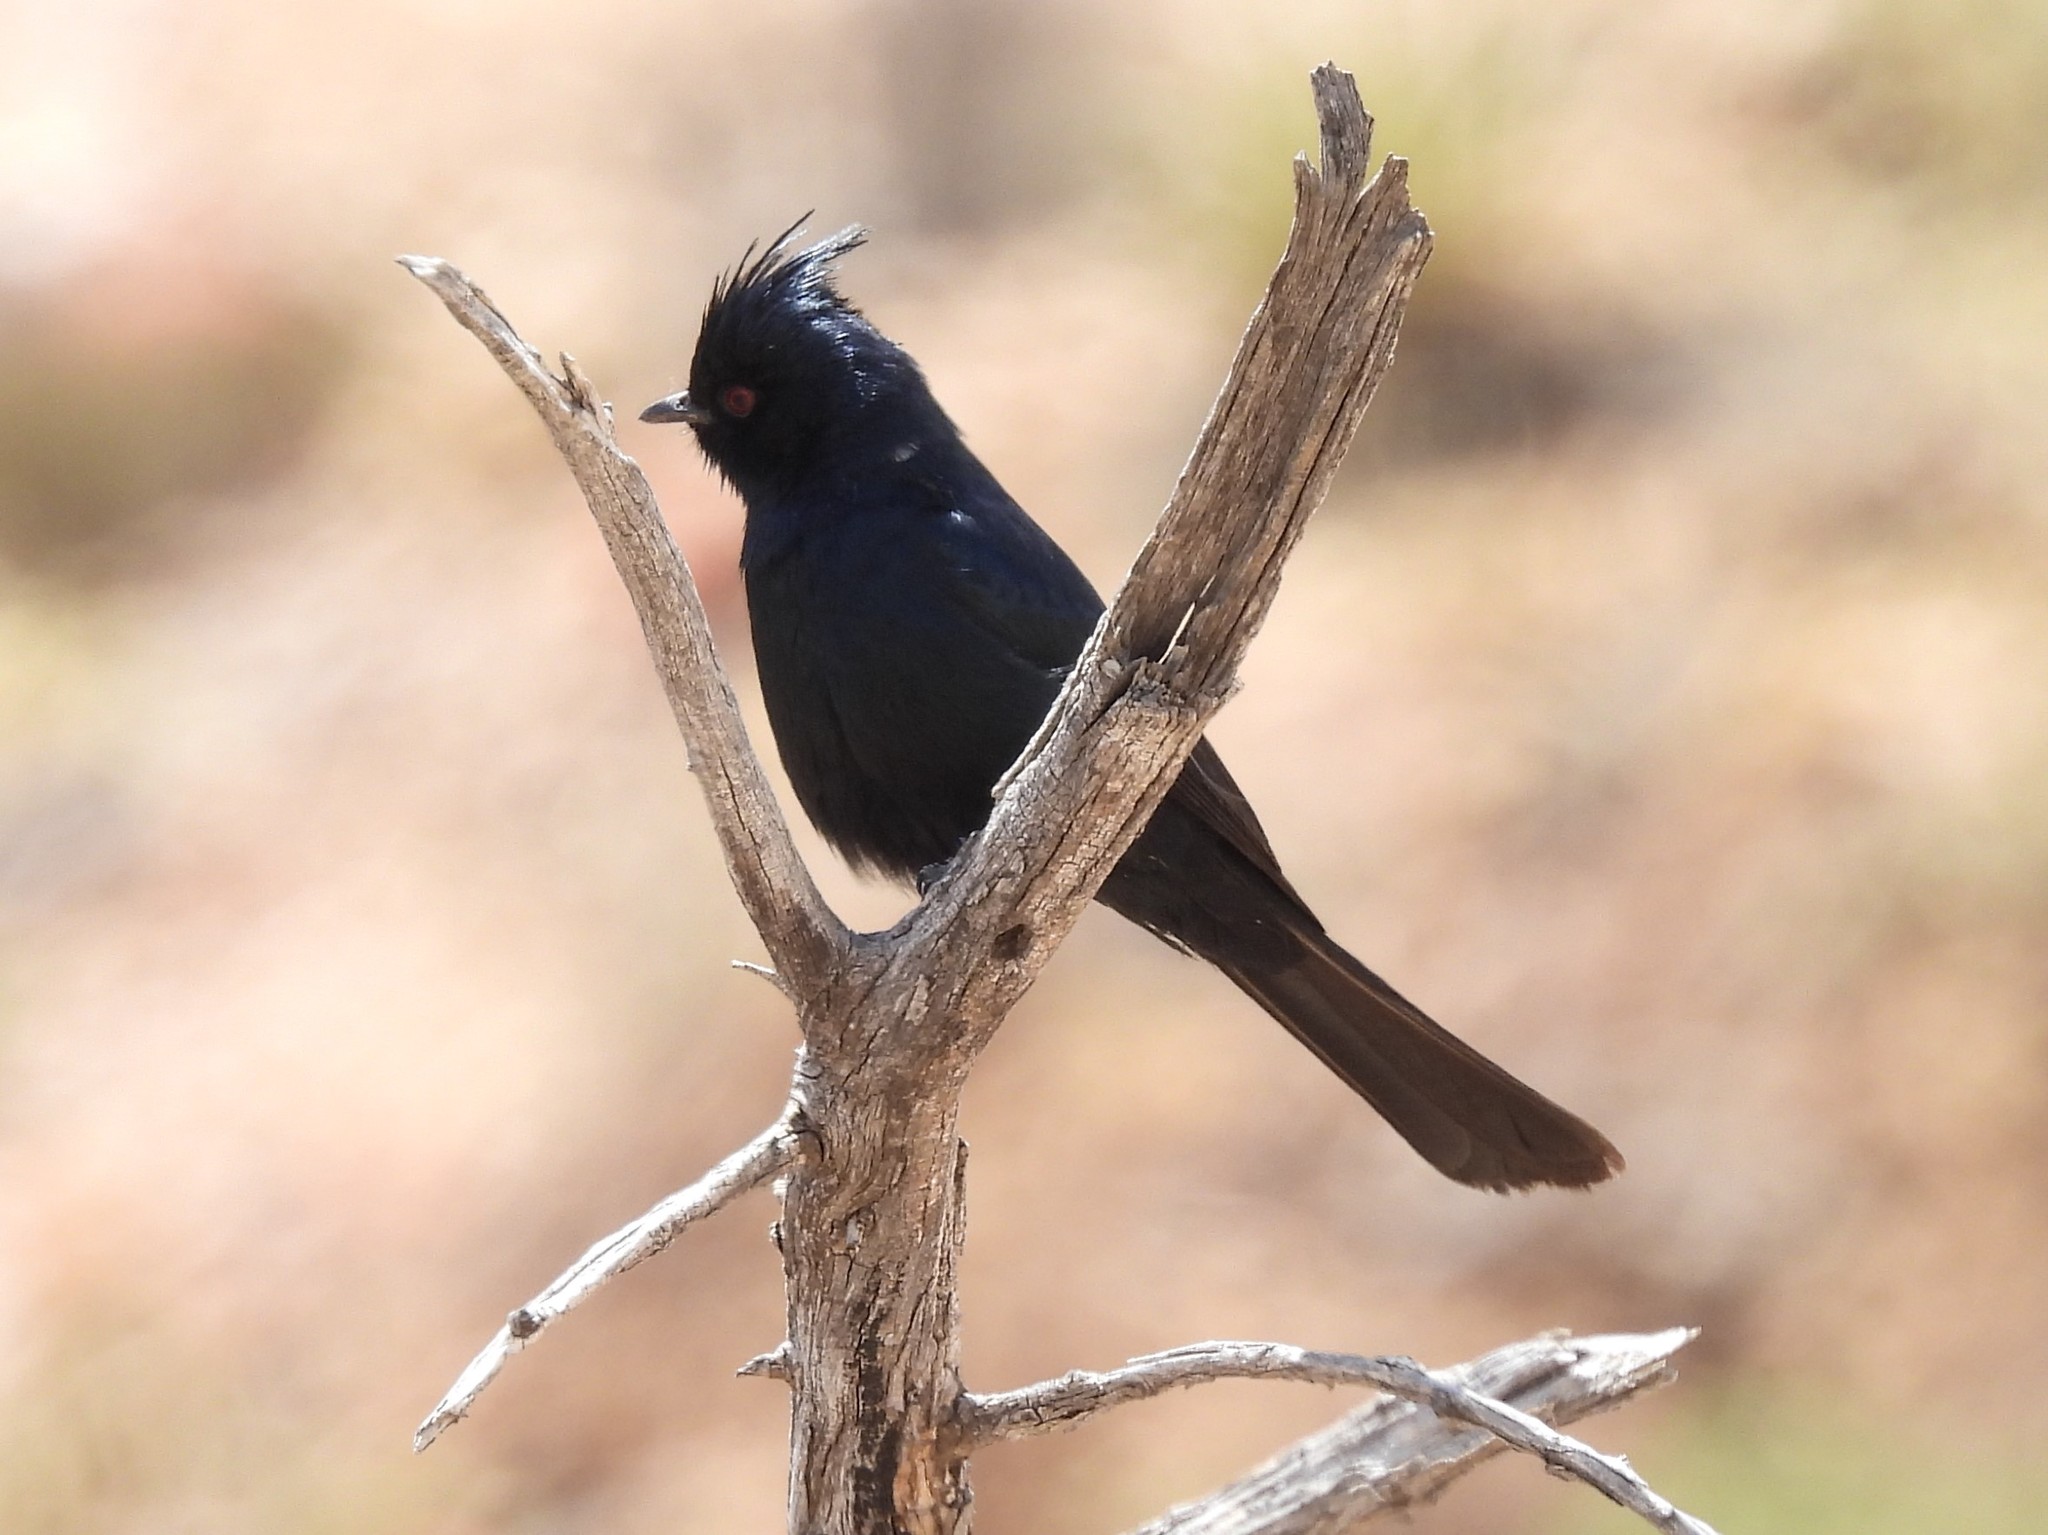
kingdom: Animalia
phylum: Chordata
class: Aves
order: Passeriformes
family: Ptilogonatidae
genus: Phainopepla
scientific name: Phainopepla nitens
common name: Phainopepla
